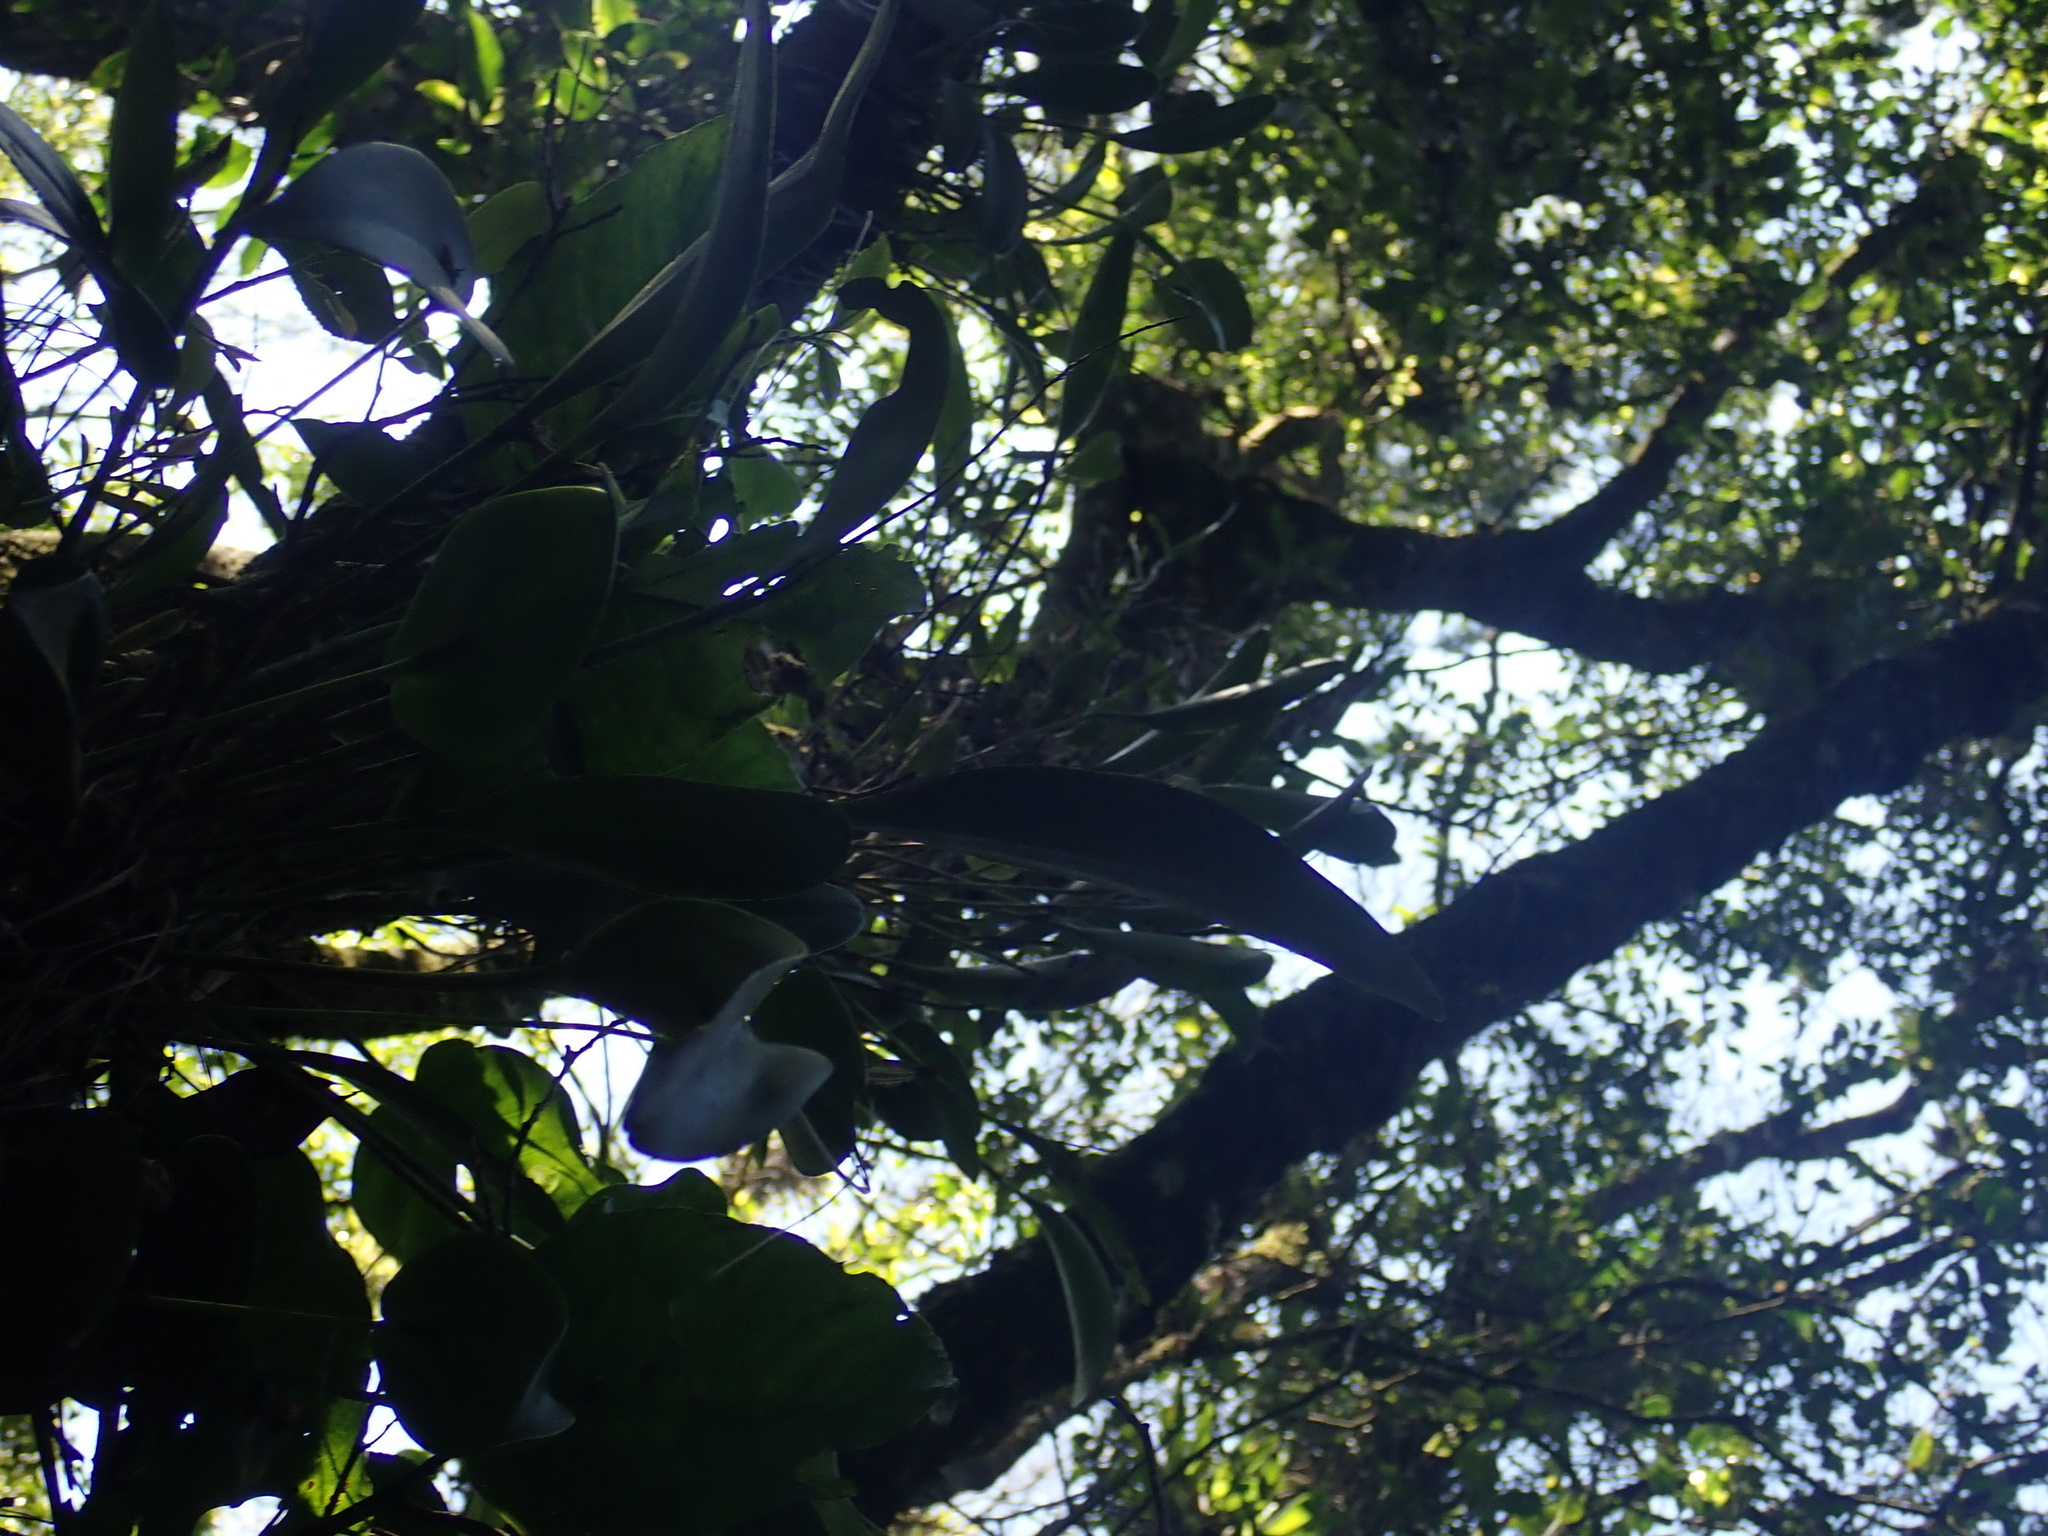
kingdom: Plantae
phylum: Tracheophyta
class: Liliopsida
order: Asparagales
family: Orchidaceae
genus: Pleurothallis
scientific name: Pleurothallis matudana
